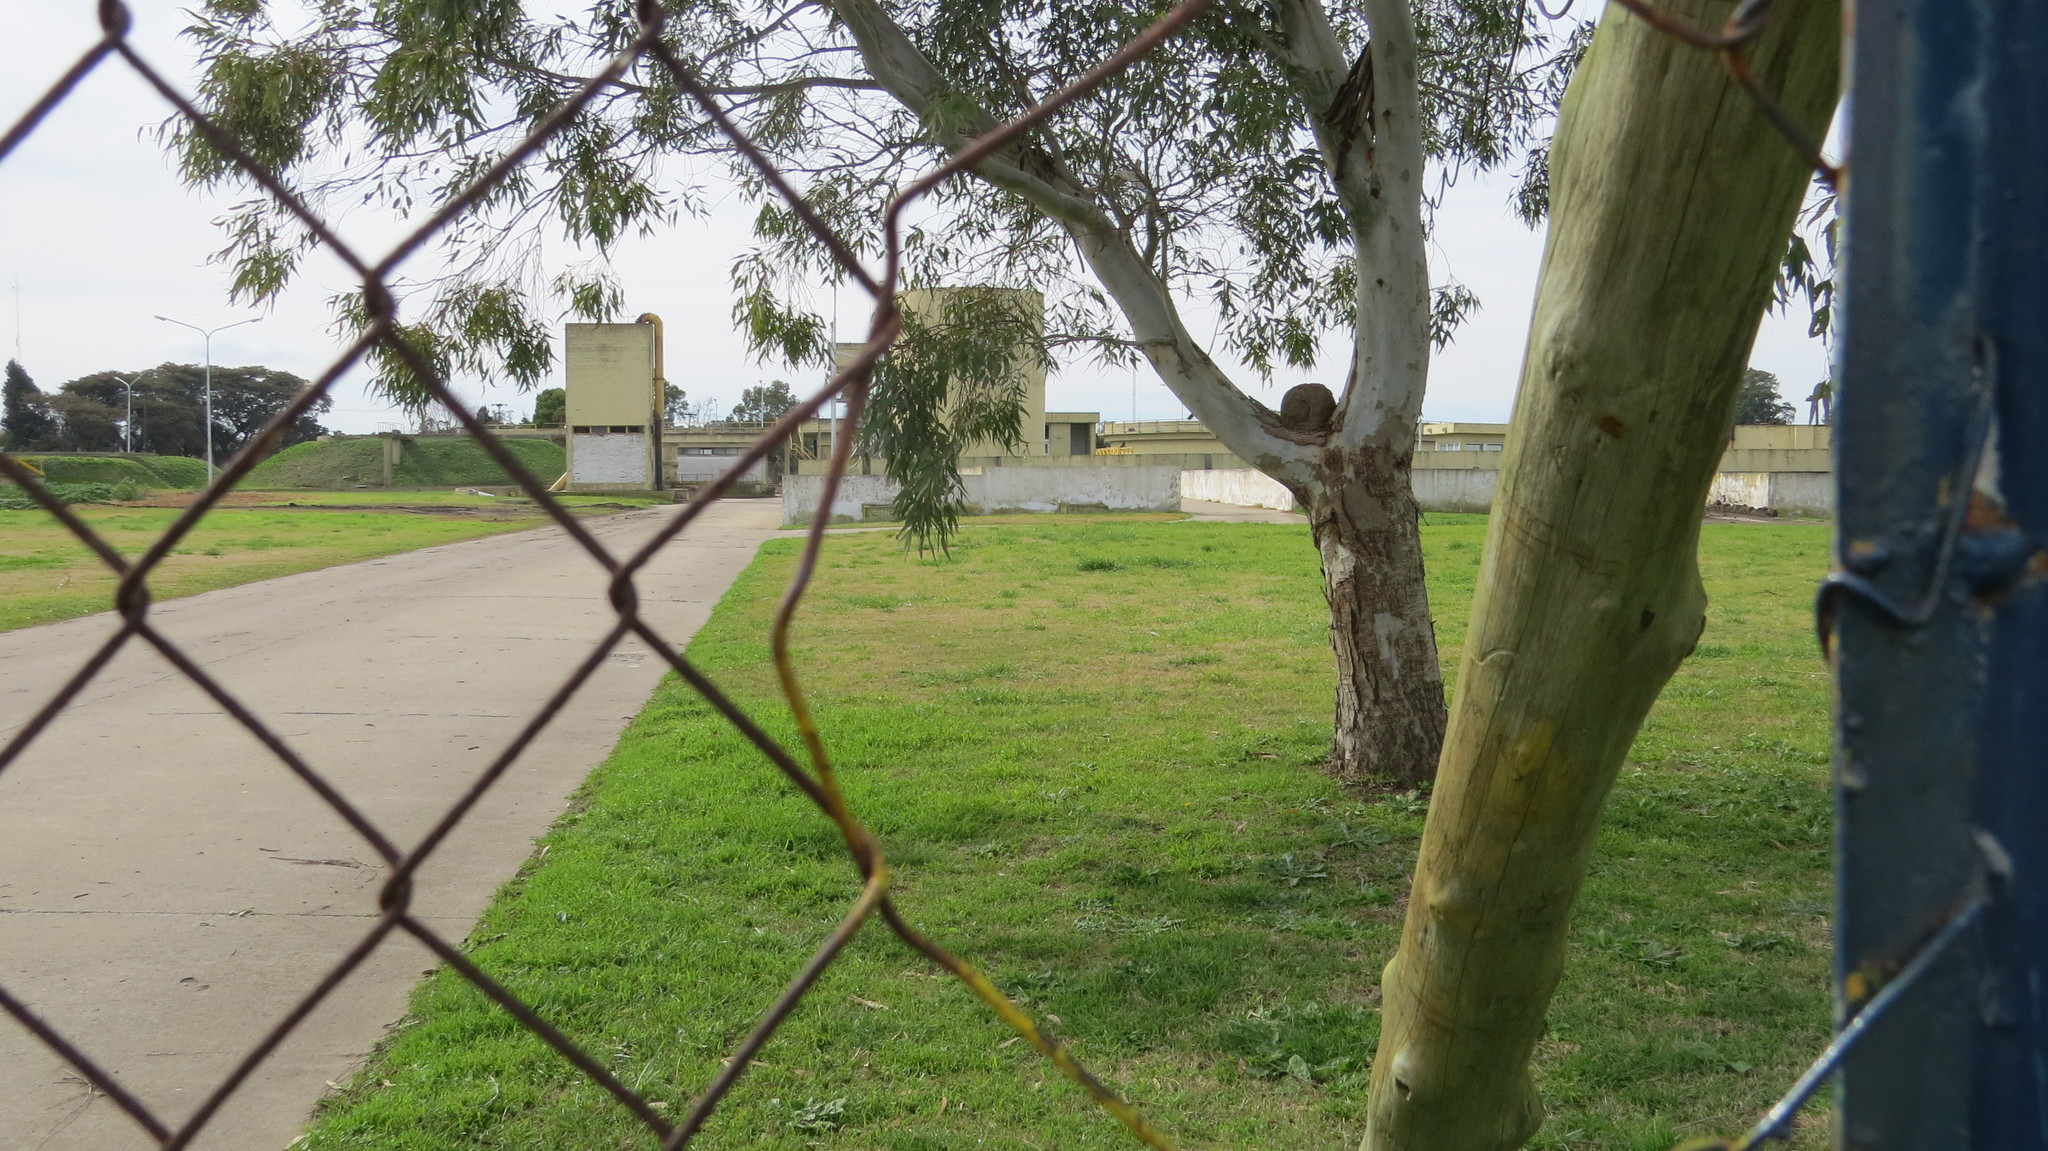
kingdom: Animalia
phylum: Chordata
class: Aves
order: Passeriformes
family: Furnariidae
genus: Furnarius
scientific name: Furnarius rufus
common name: Rufous hornero
